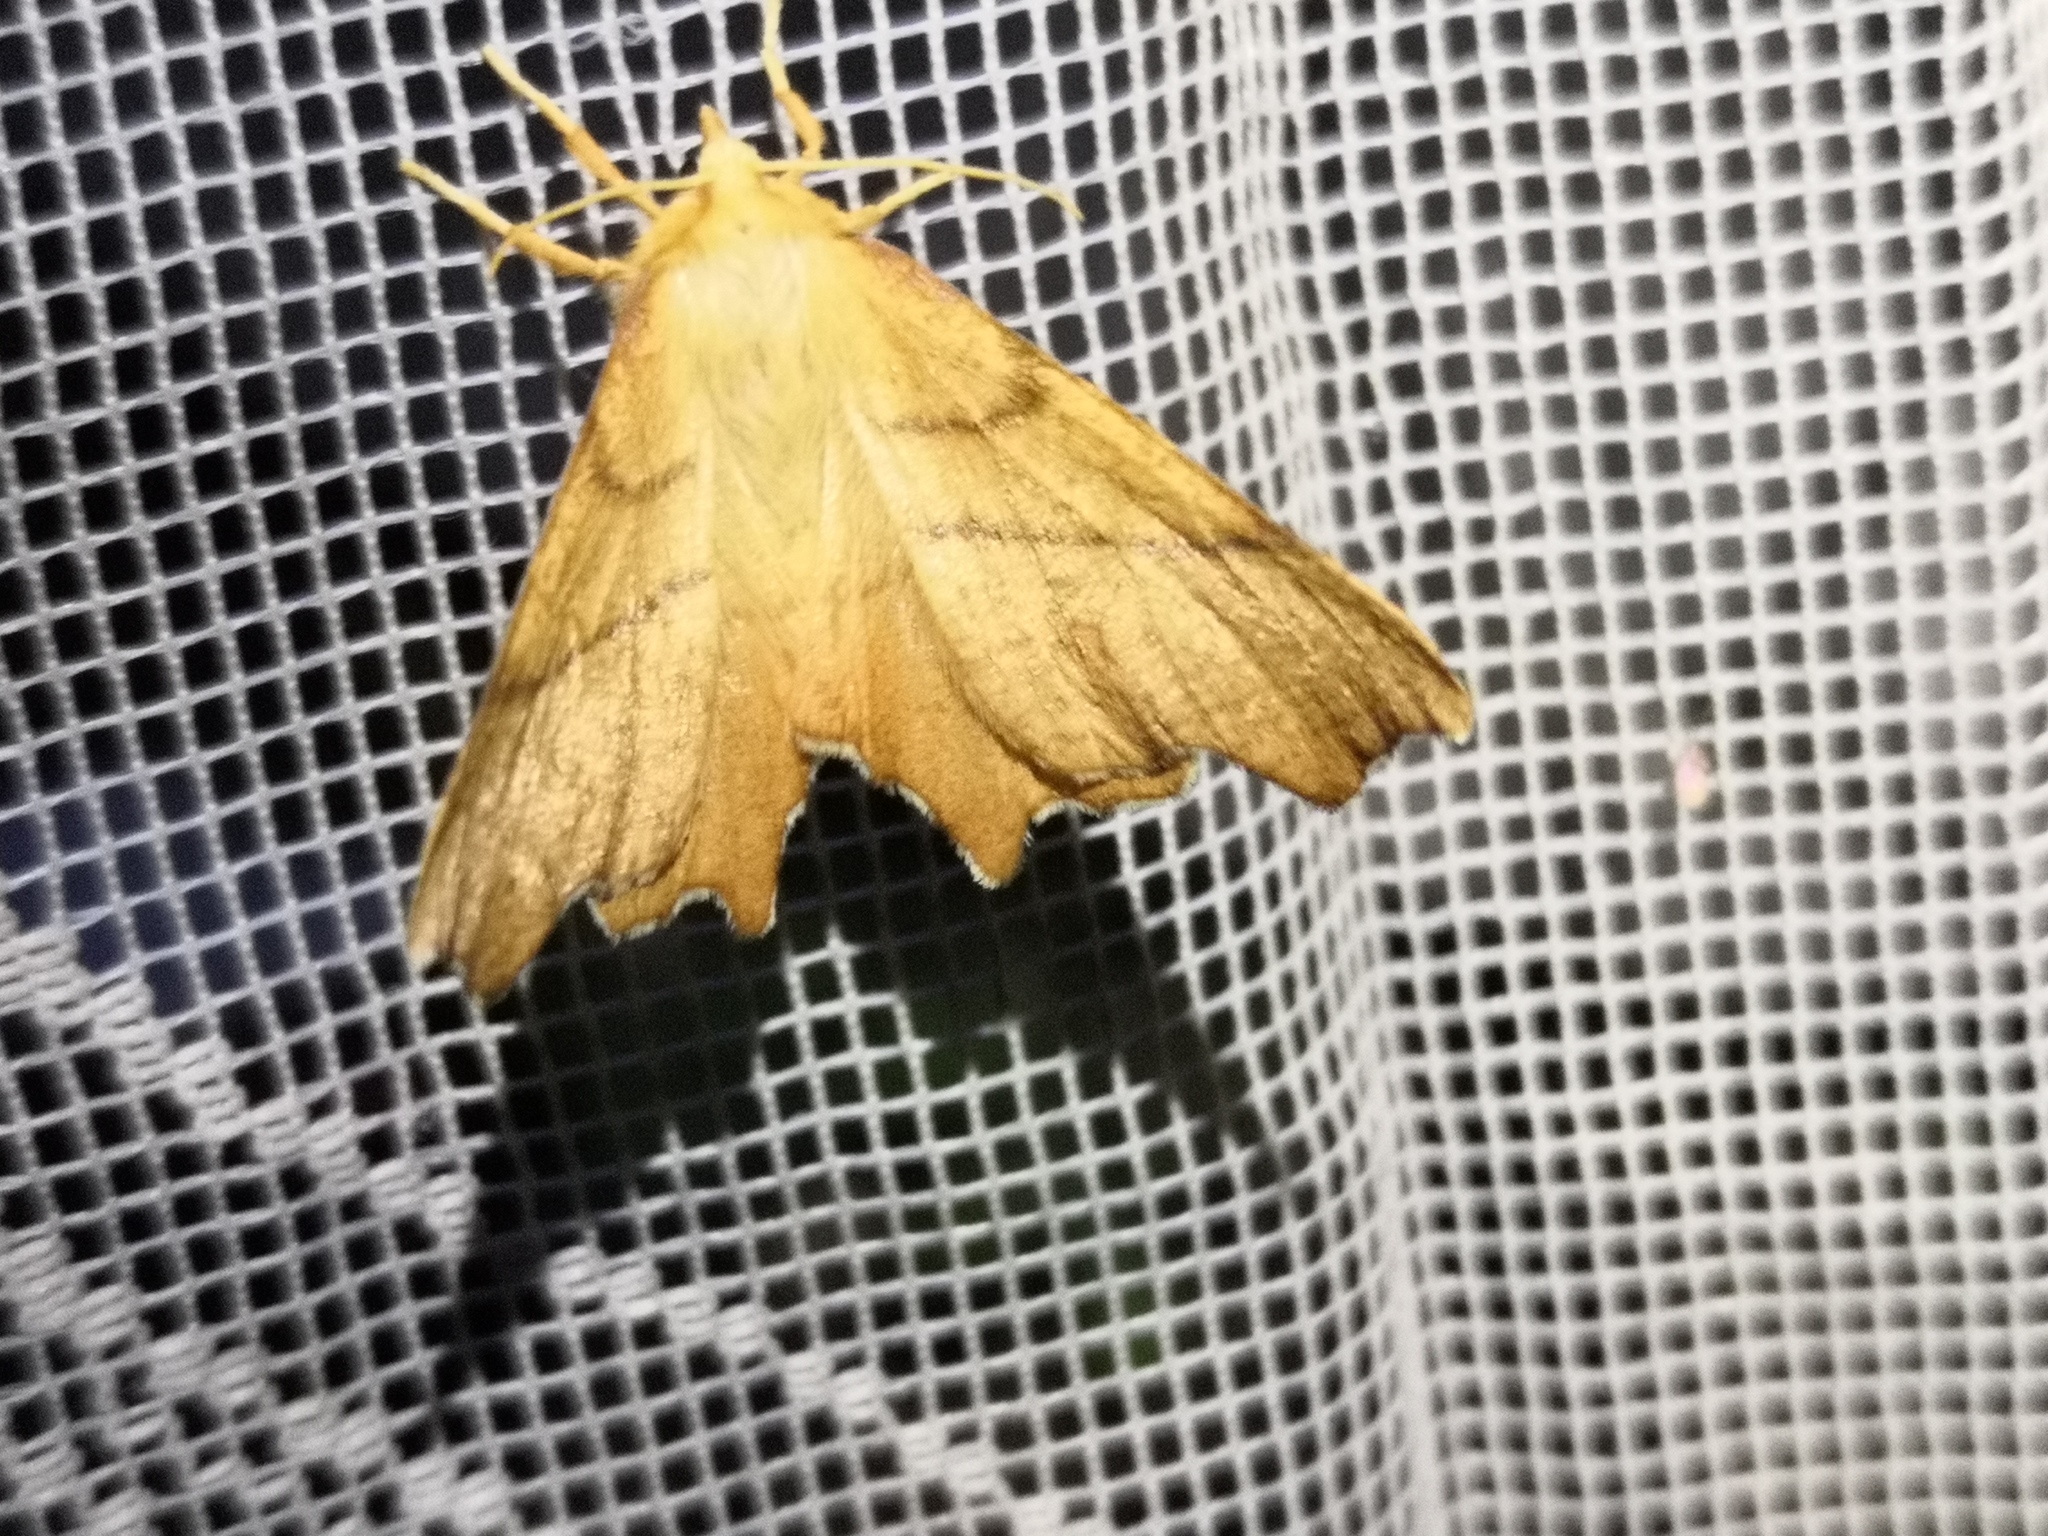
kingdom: Animalia
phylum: Arthropoda
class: Insecta
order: Lepidoptera
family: Geometridae
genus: Ennomos
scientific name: Ennomos erosaria
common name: September thorn
